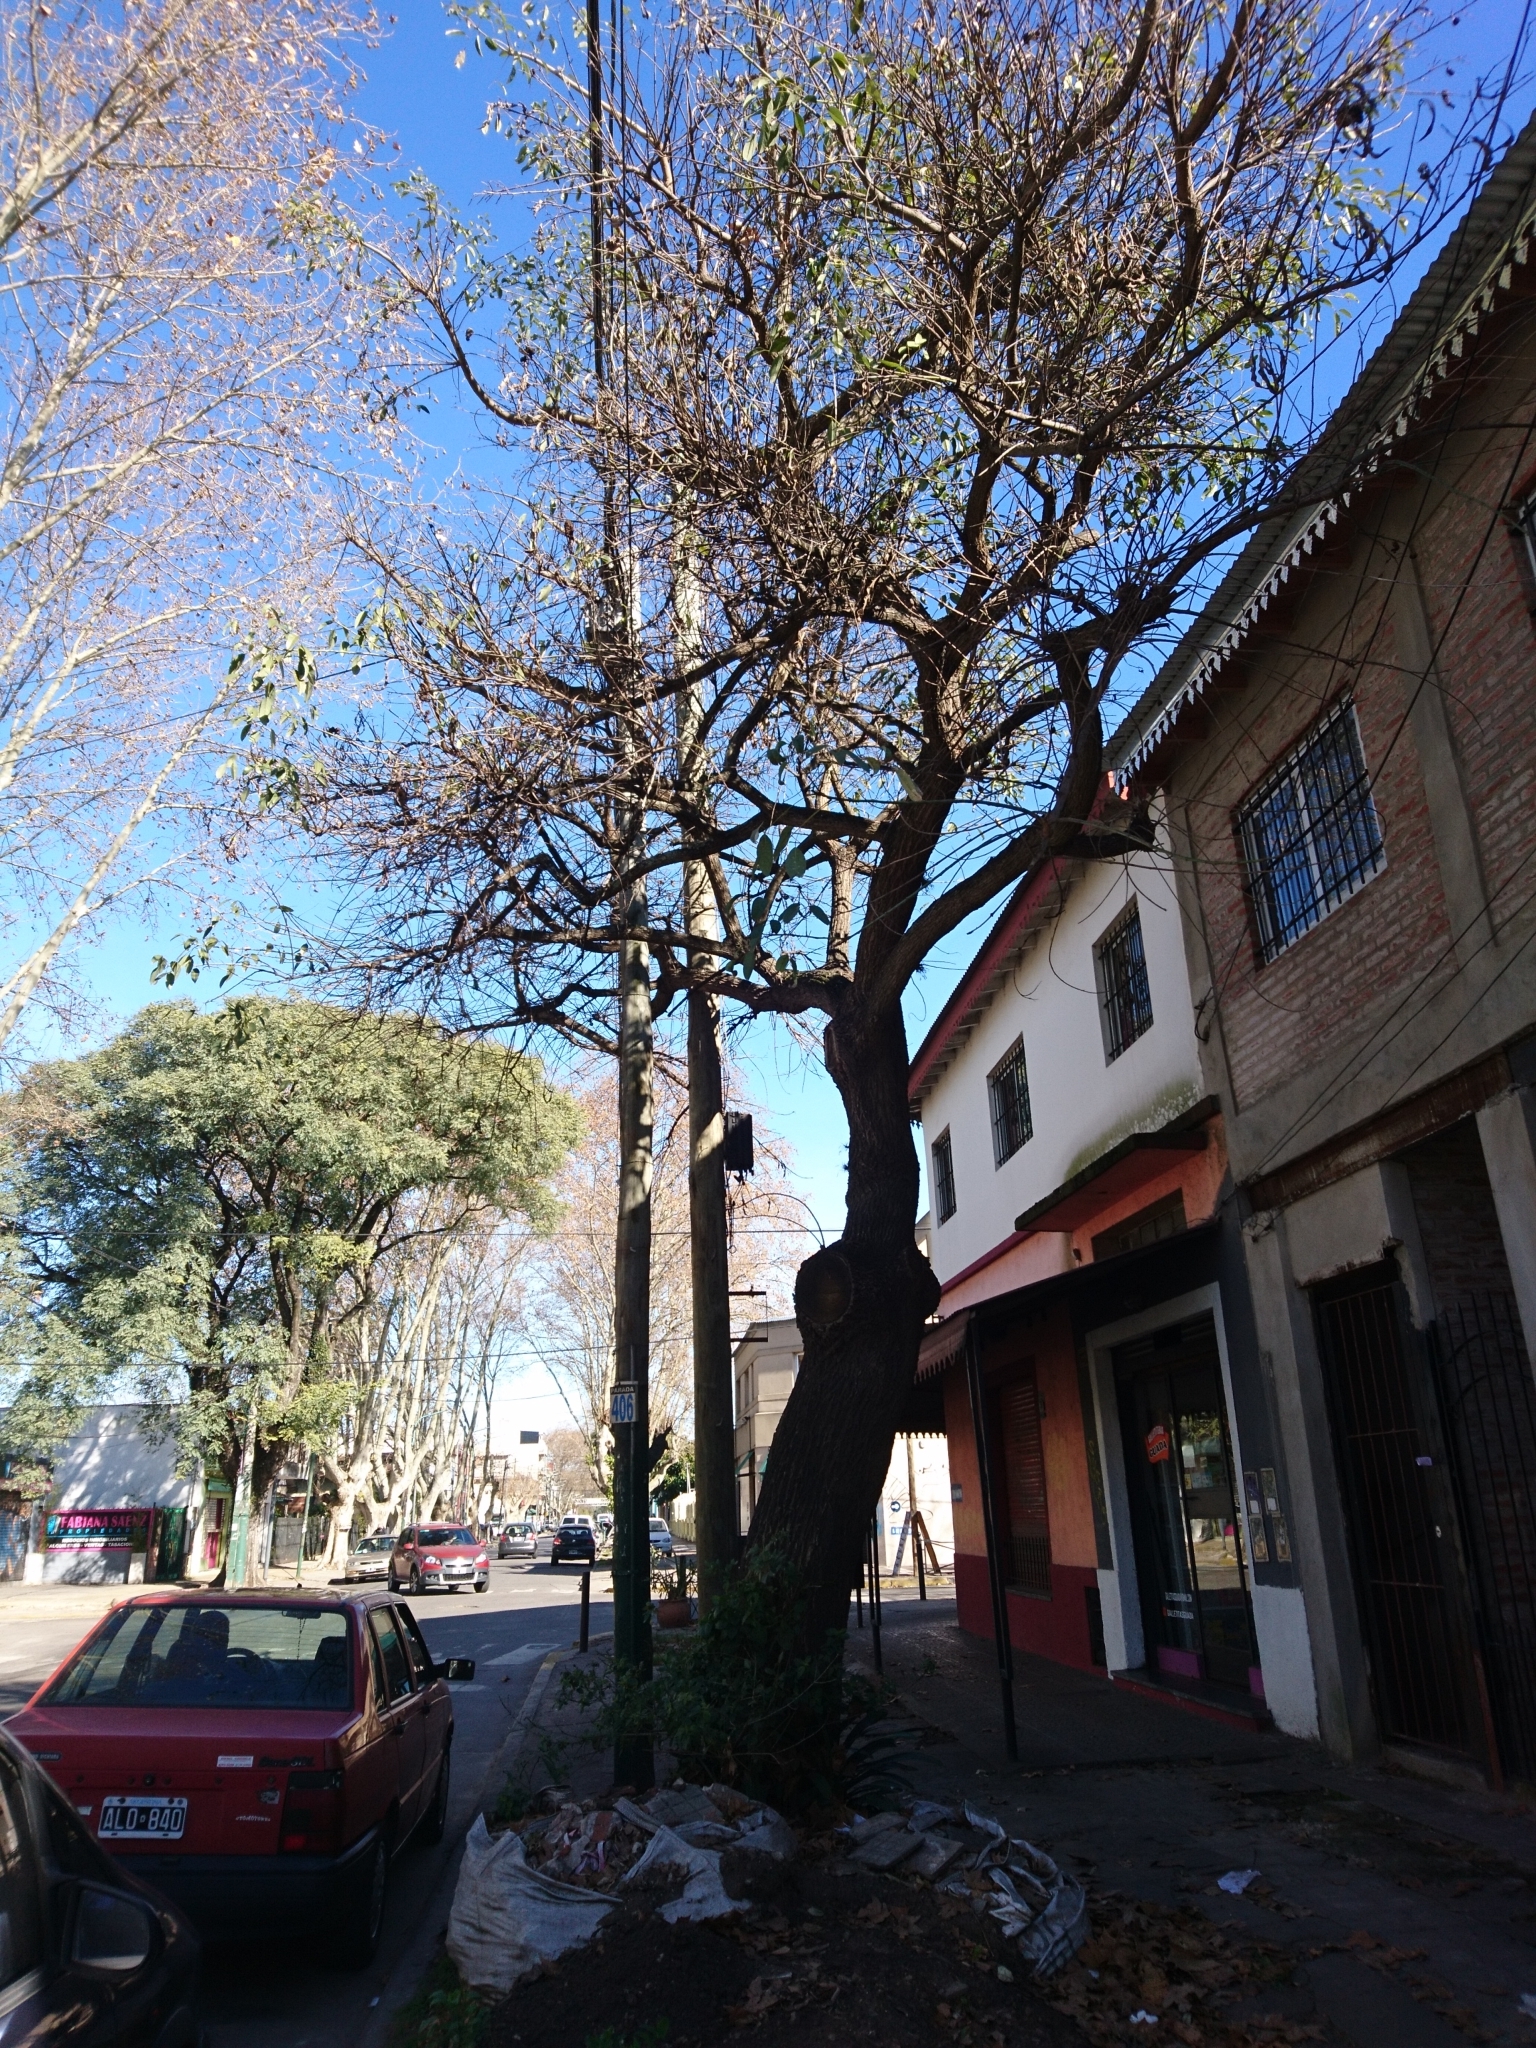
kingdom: Plantae
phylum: Tracheophyta
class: Magnoliopsida
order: Fabales
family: Fabaceae
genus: Erythrina
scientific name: Erythrina crista-galli
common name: Cockspur coral tree
